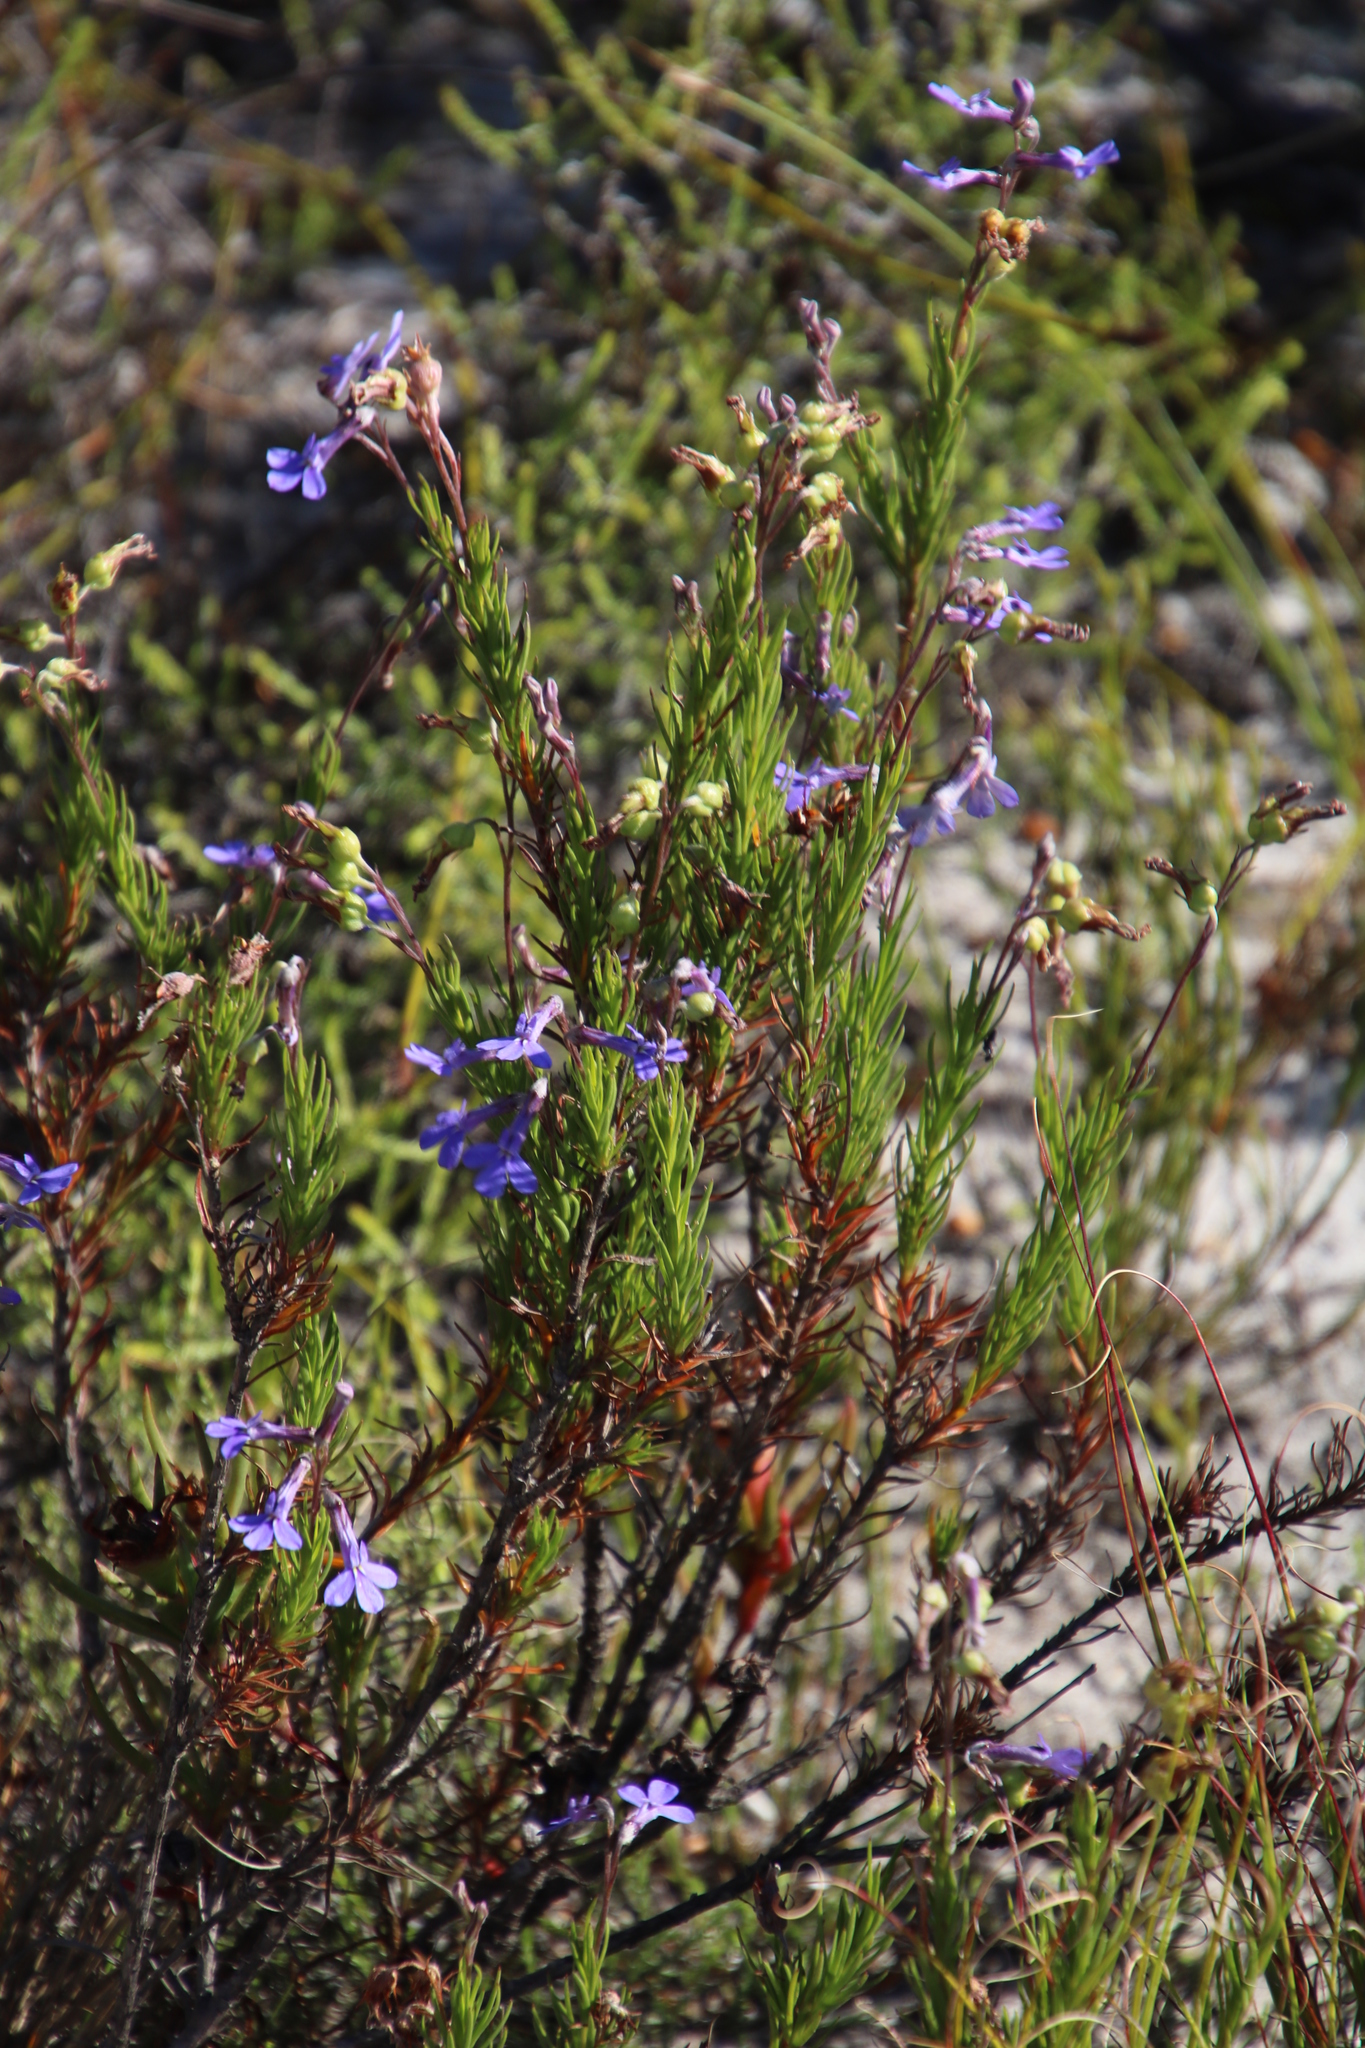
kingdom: Plantae
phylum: Tracheophyta
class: Magnoliopsida
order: Asterales
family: Campanulaceae
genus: Lobelia
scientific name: Lobelia pinifolia
